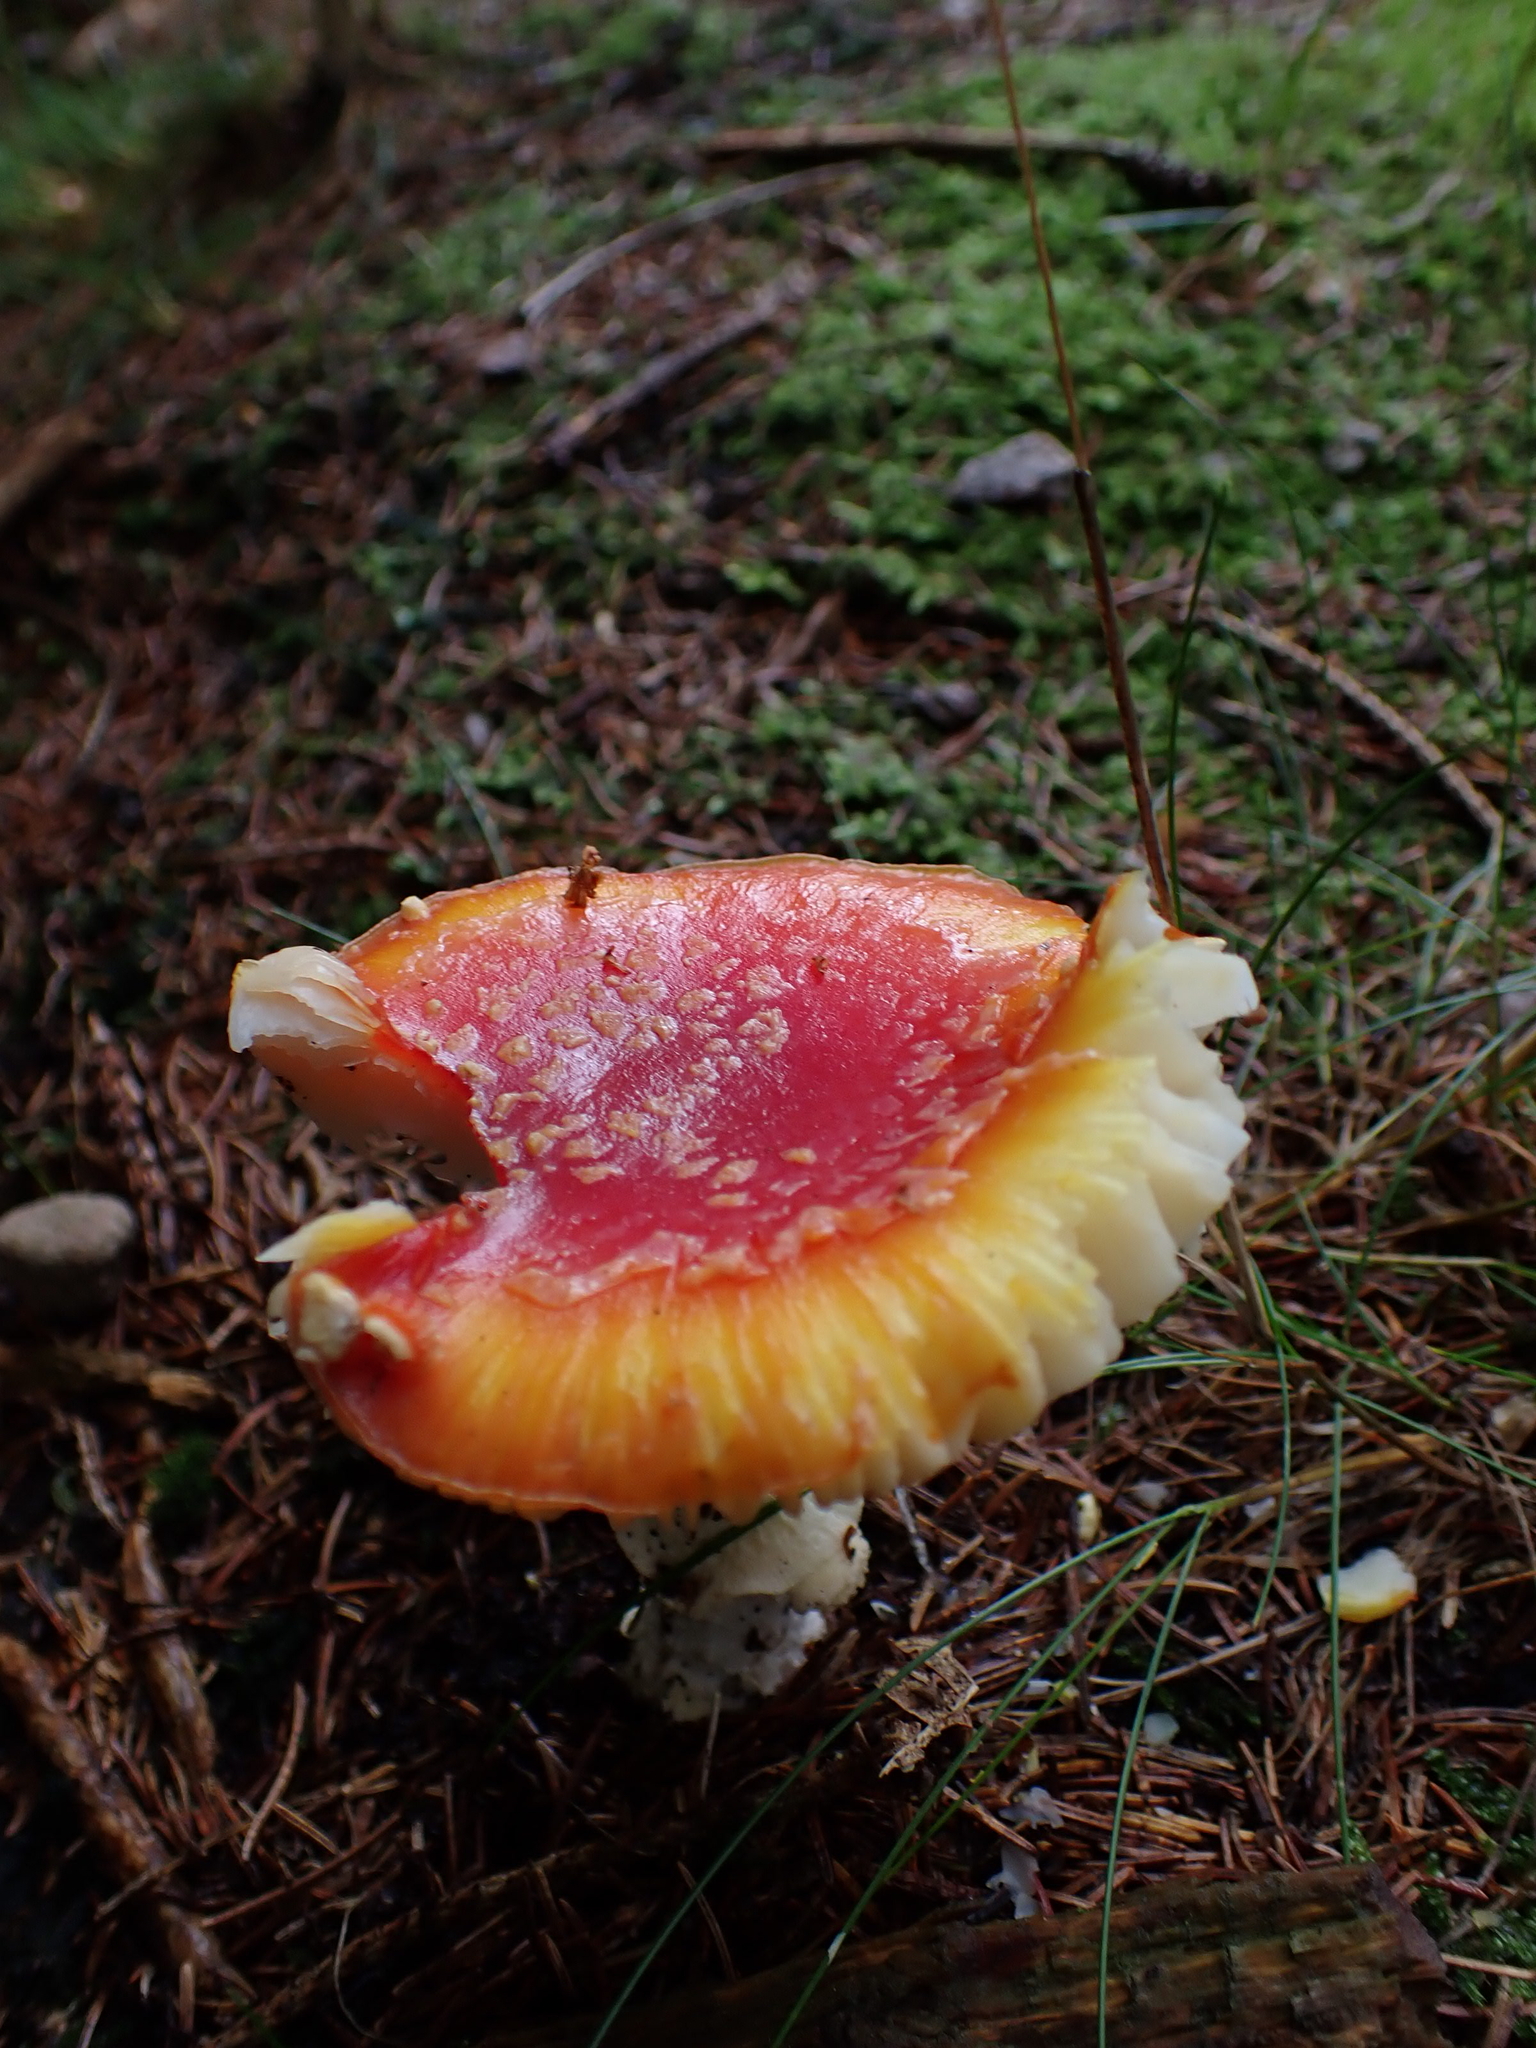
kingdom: Fungi
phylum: Basidiomycota
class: Agaricomycetes
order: Agaricales
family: Amanitaceae
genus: Amanita
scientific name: Amanita muscaria
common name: Fly agaric
